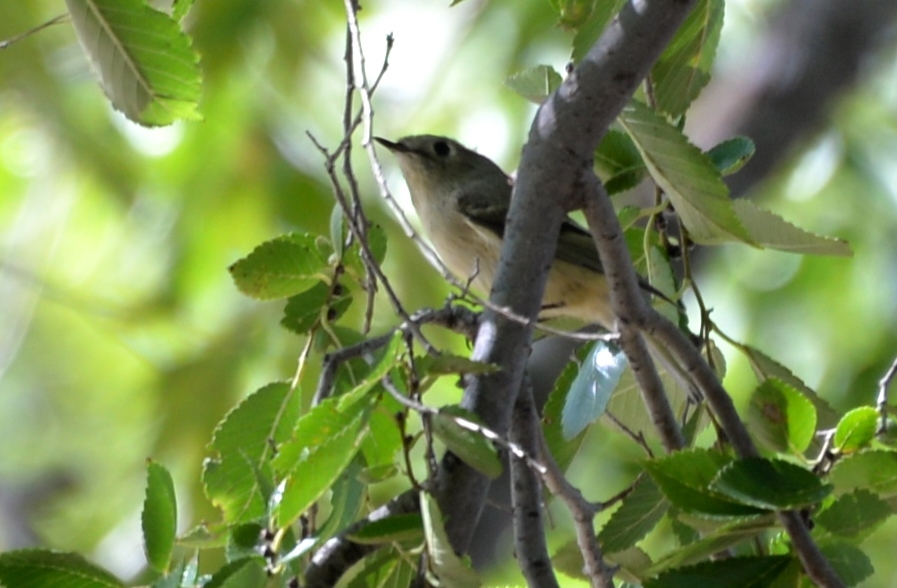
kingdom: Animalia
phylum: Chordata
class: Aves
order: Passeriformes
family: Regulidae
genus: Regulus
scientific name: Regulus calendula
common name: Ruby-crowned kinglet
